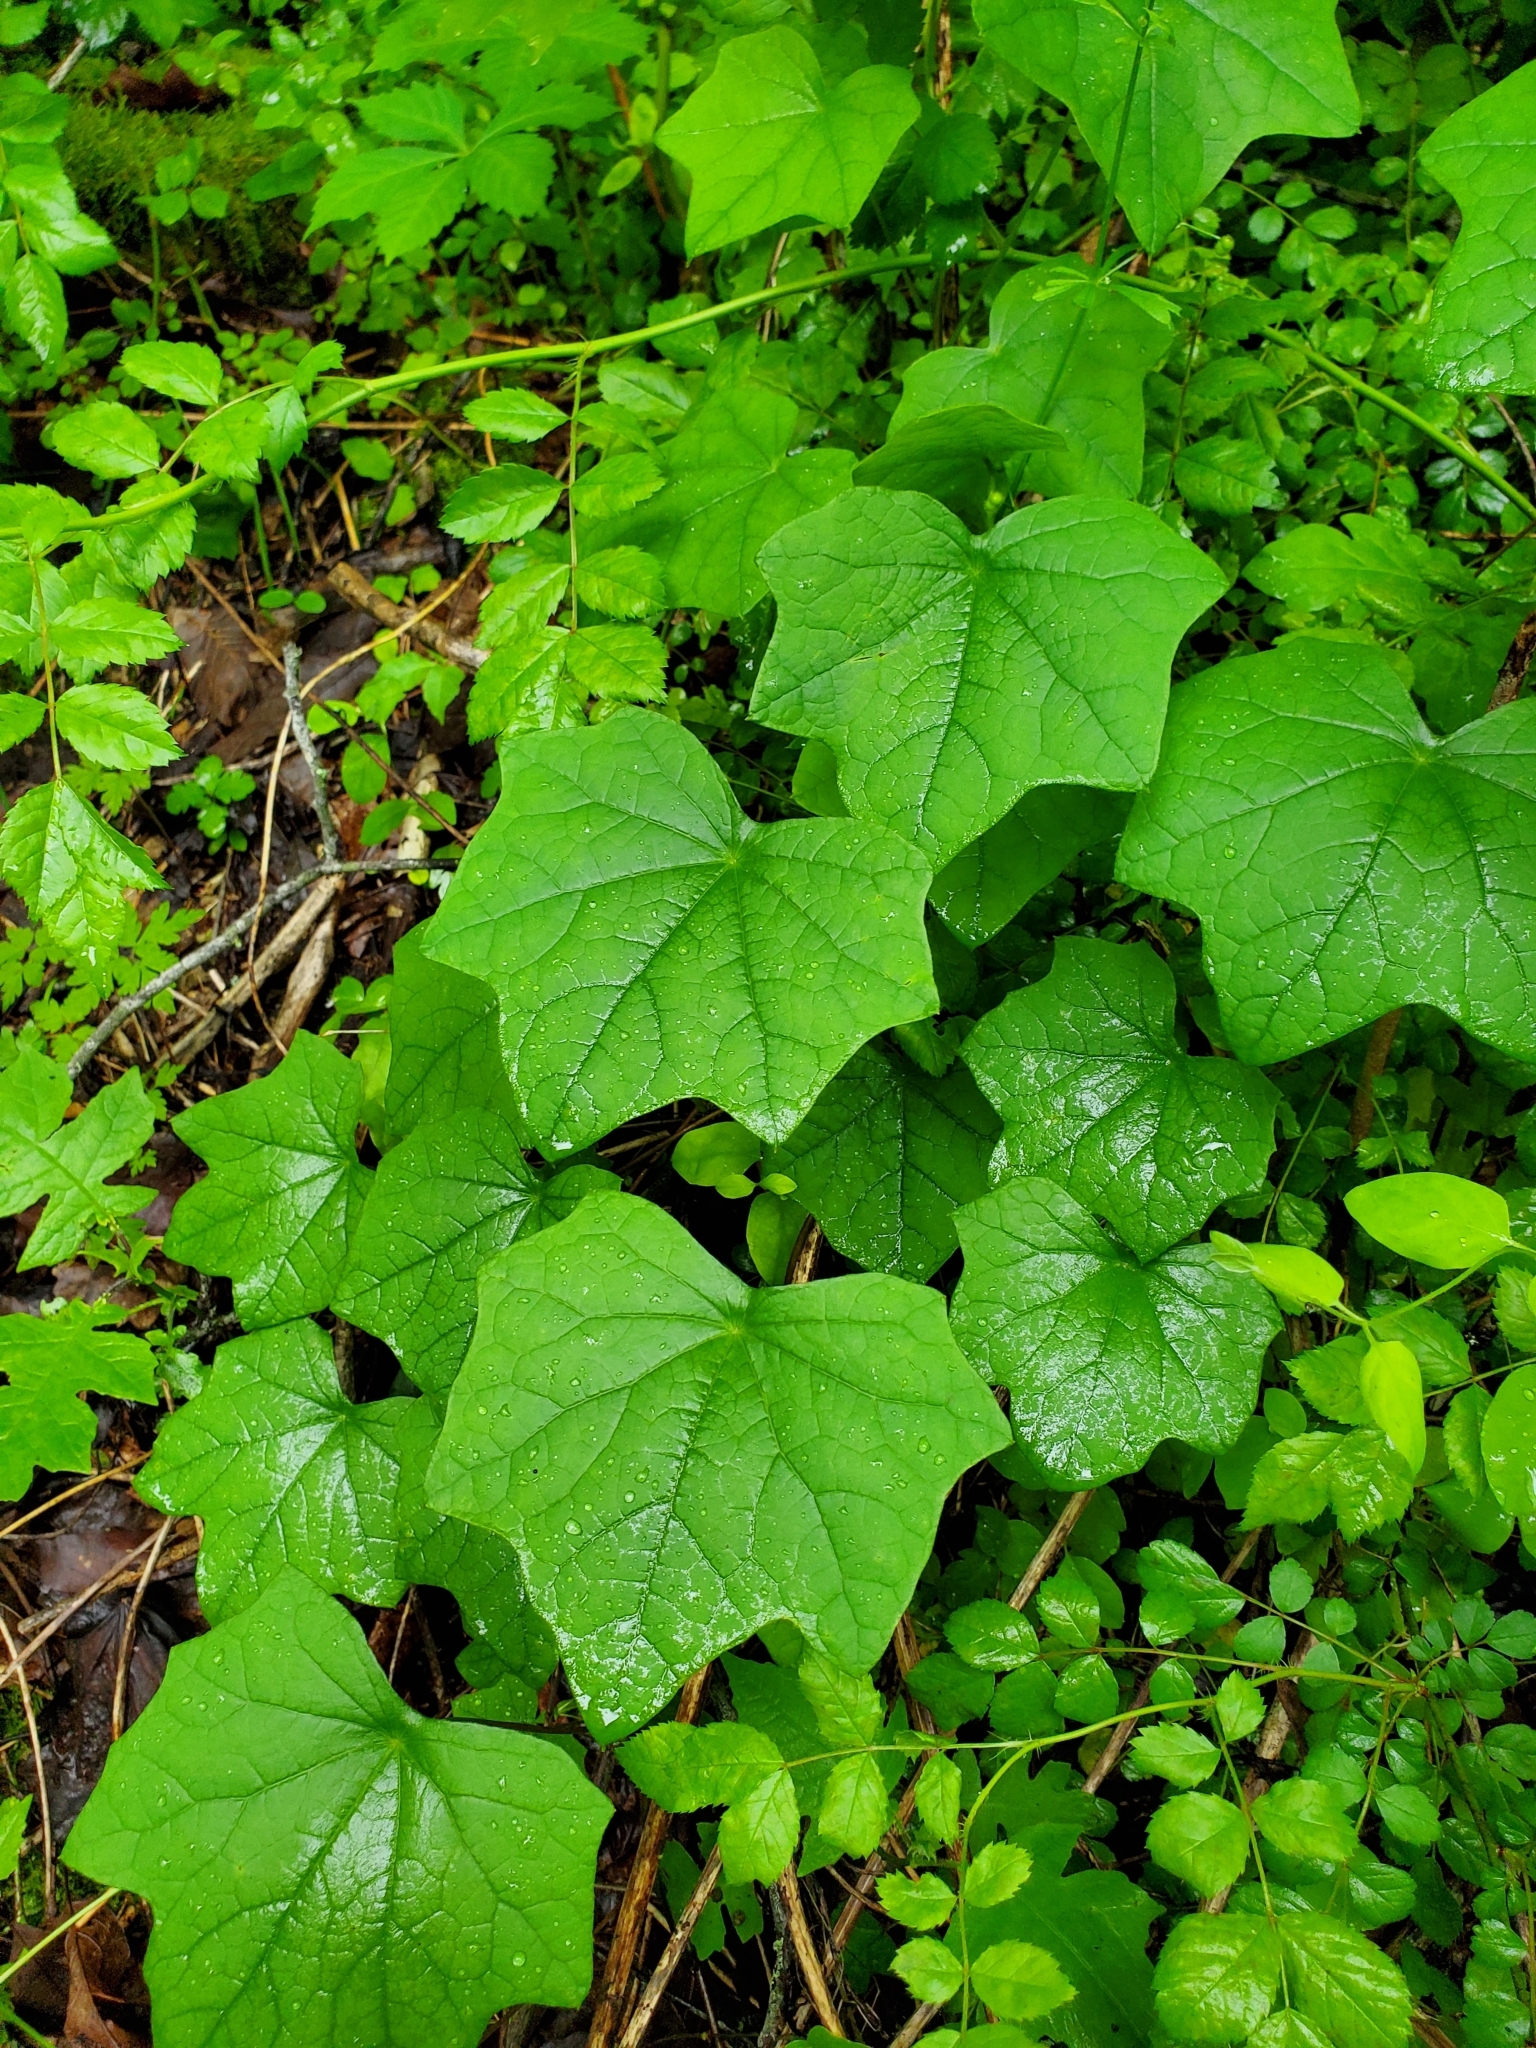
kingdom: Plantae
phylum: Tracheophyta
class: Magnoliopsida
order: Ranunculales
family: Menispermaceae
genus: Menispermum
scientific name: Menispermum canadense
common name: Moonseed
